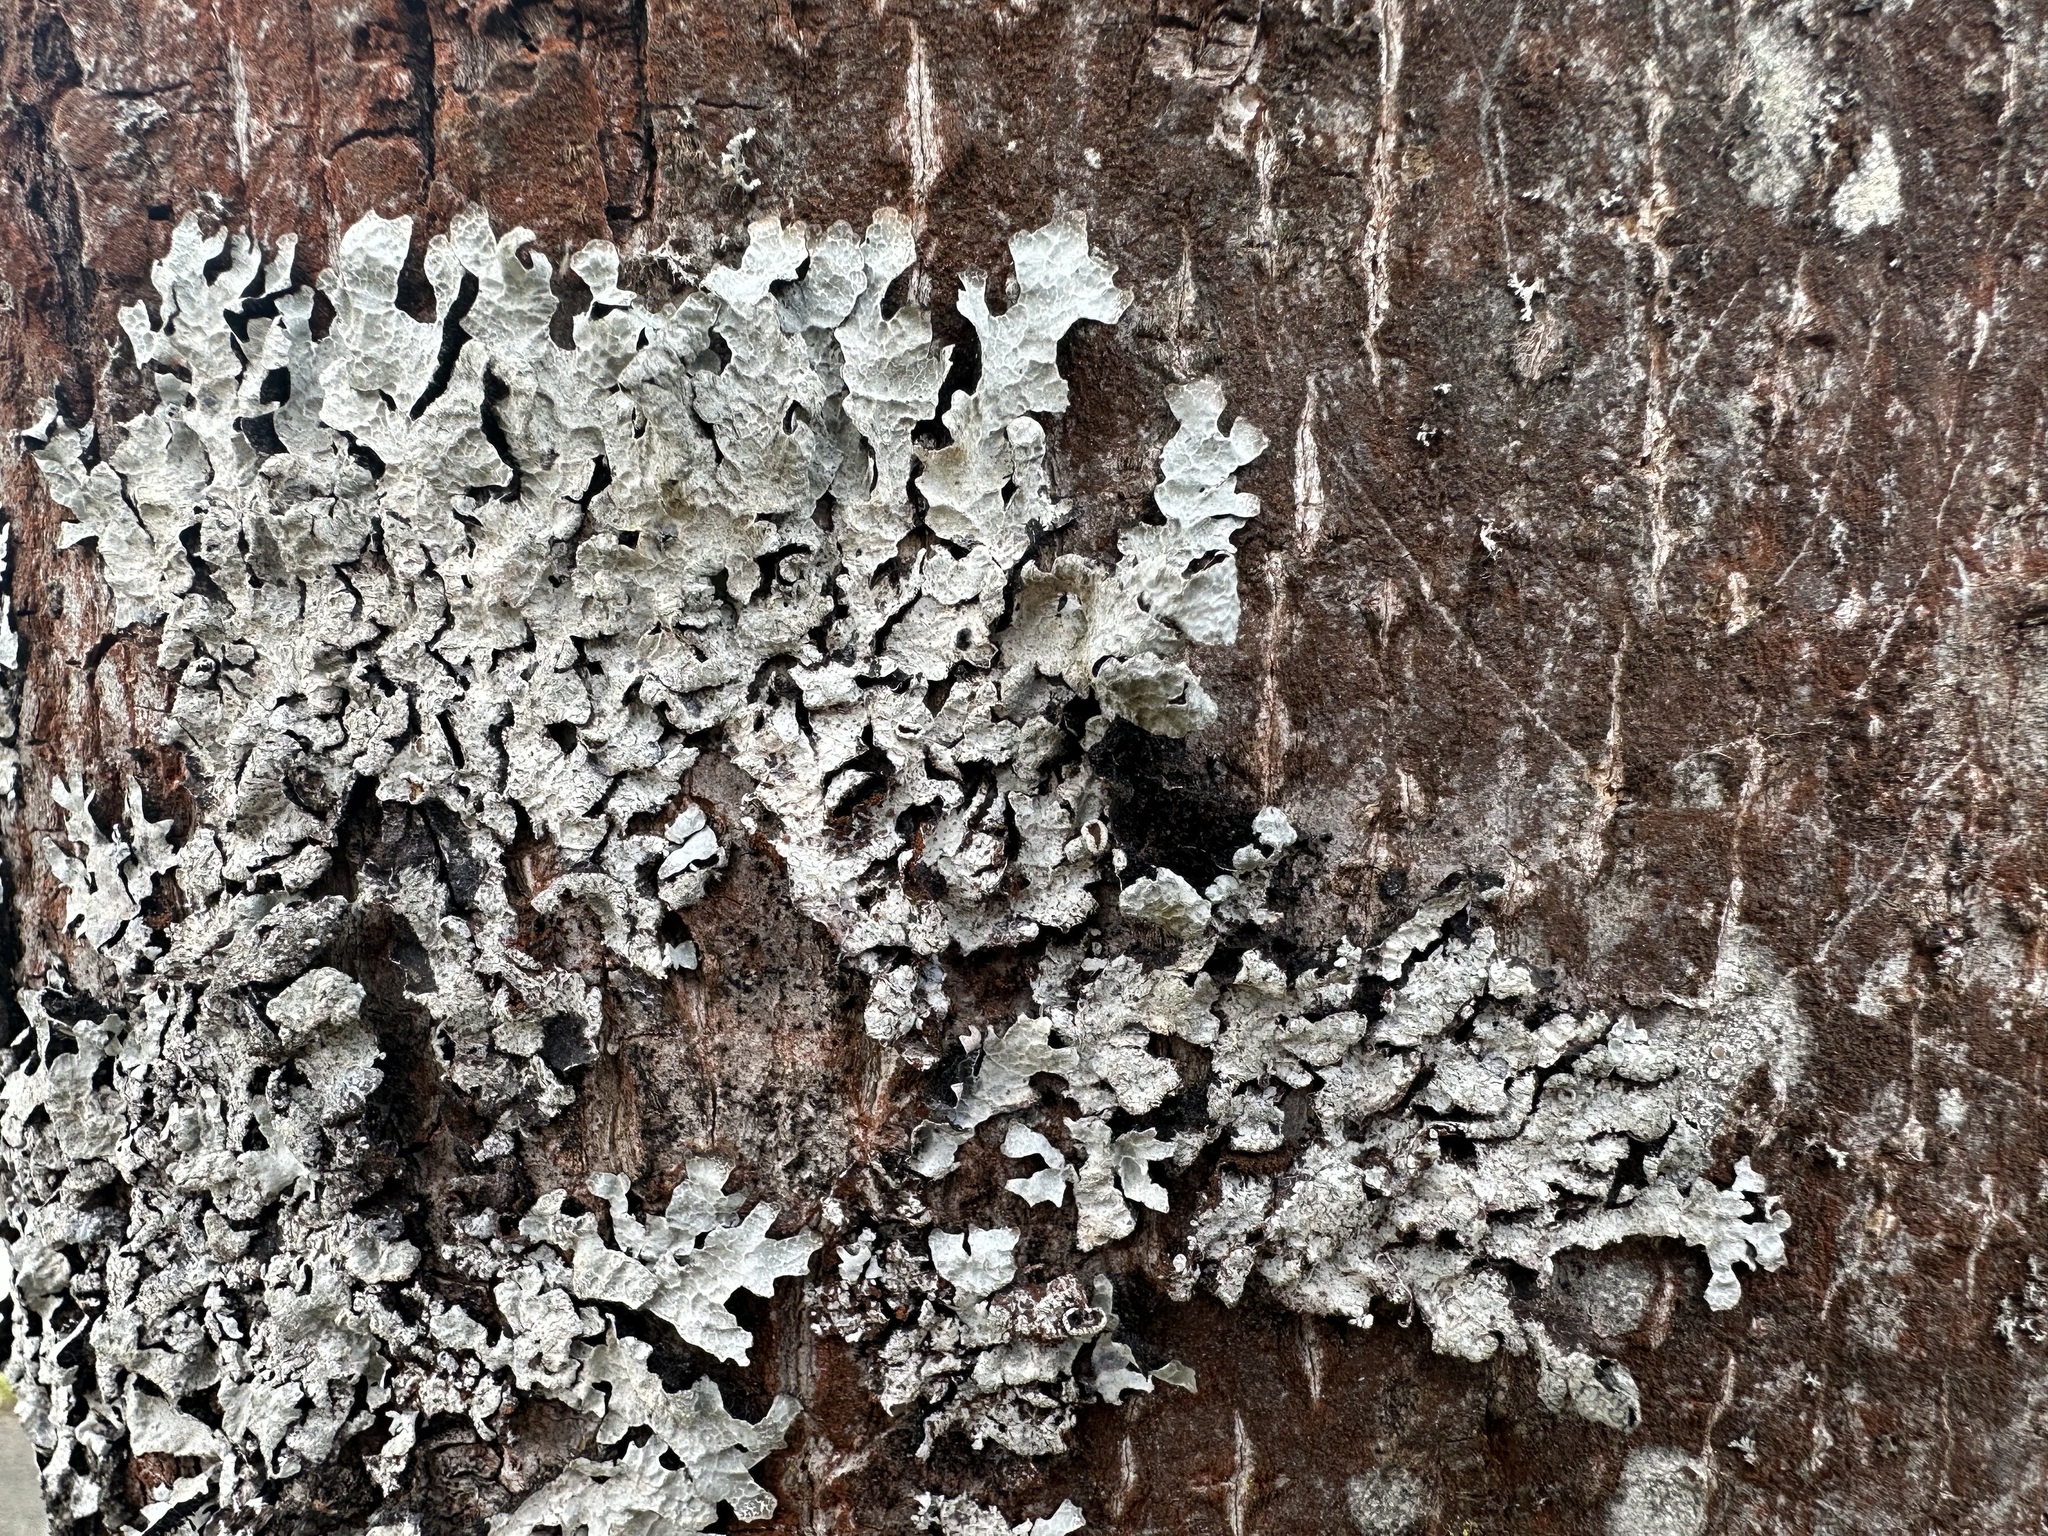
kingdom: Fungi
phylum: Ascomycota
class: Lecanoromycetes
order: Lecanorales
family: Parmeliaceae
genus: Parmelia
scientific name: Parmelia sulcata
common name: Netted shield lichen
